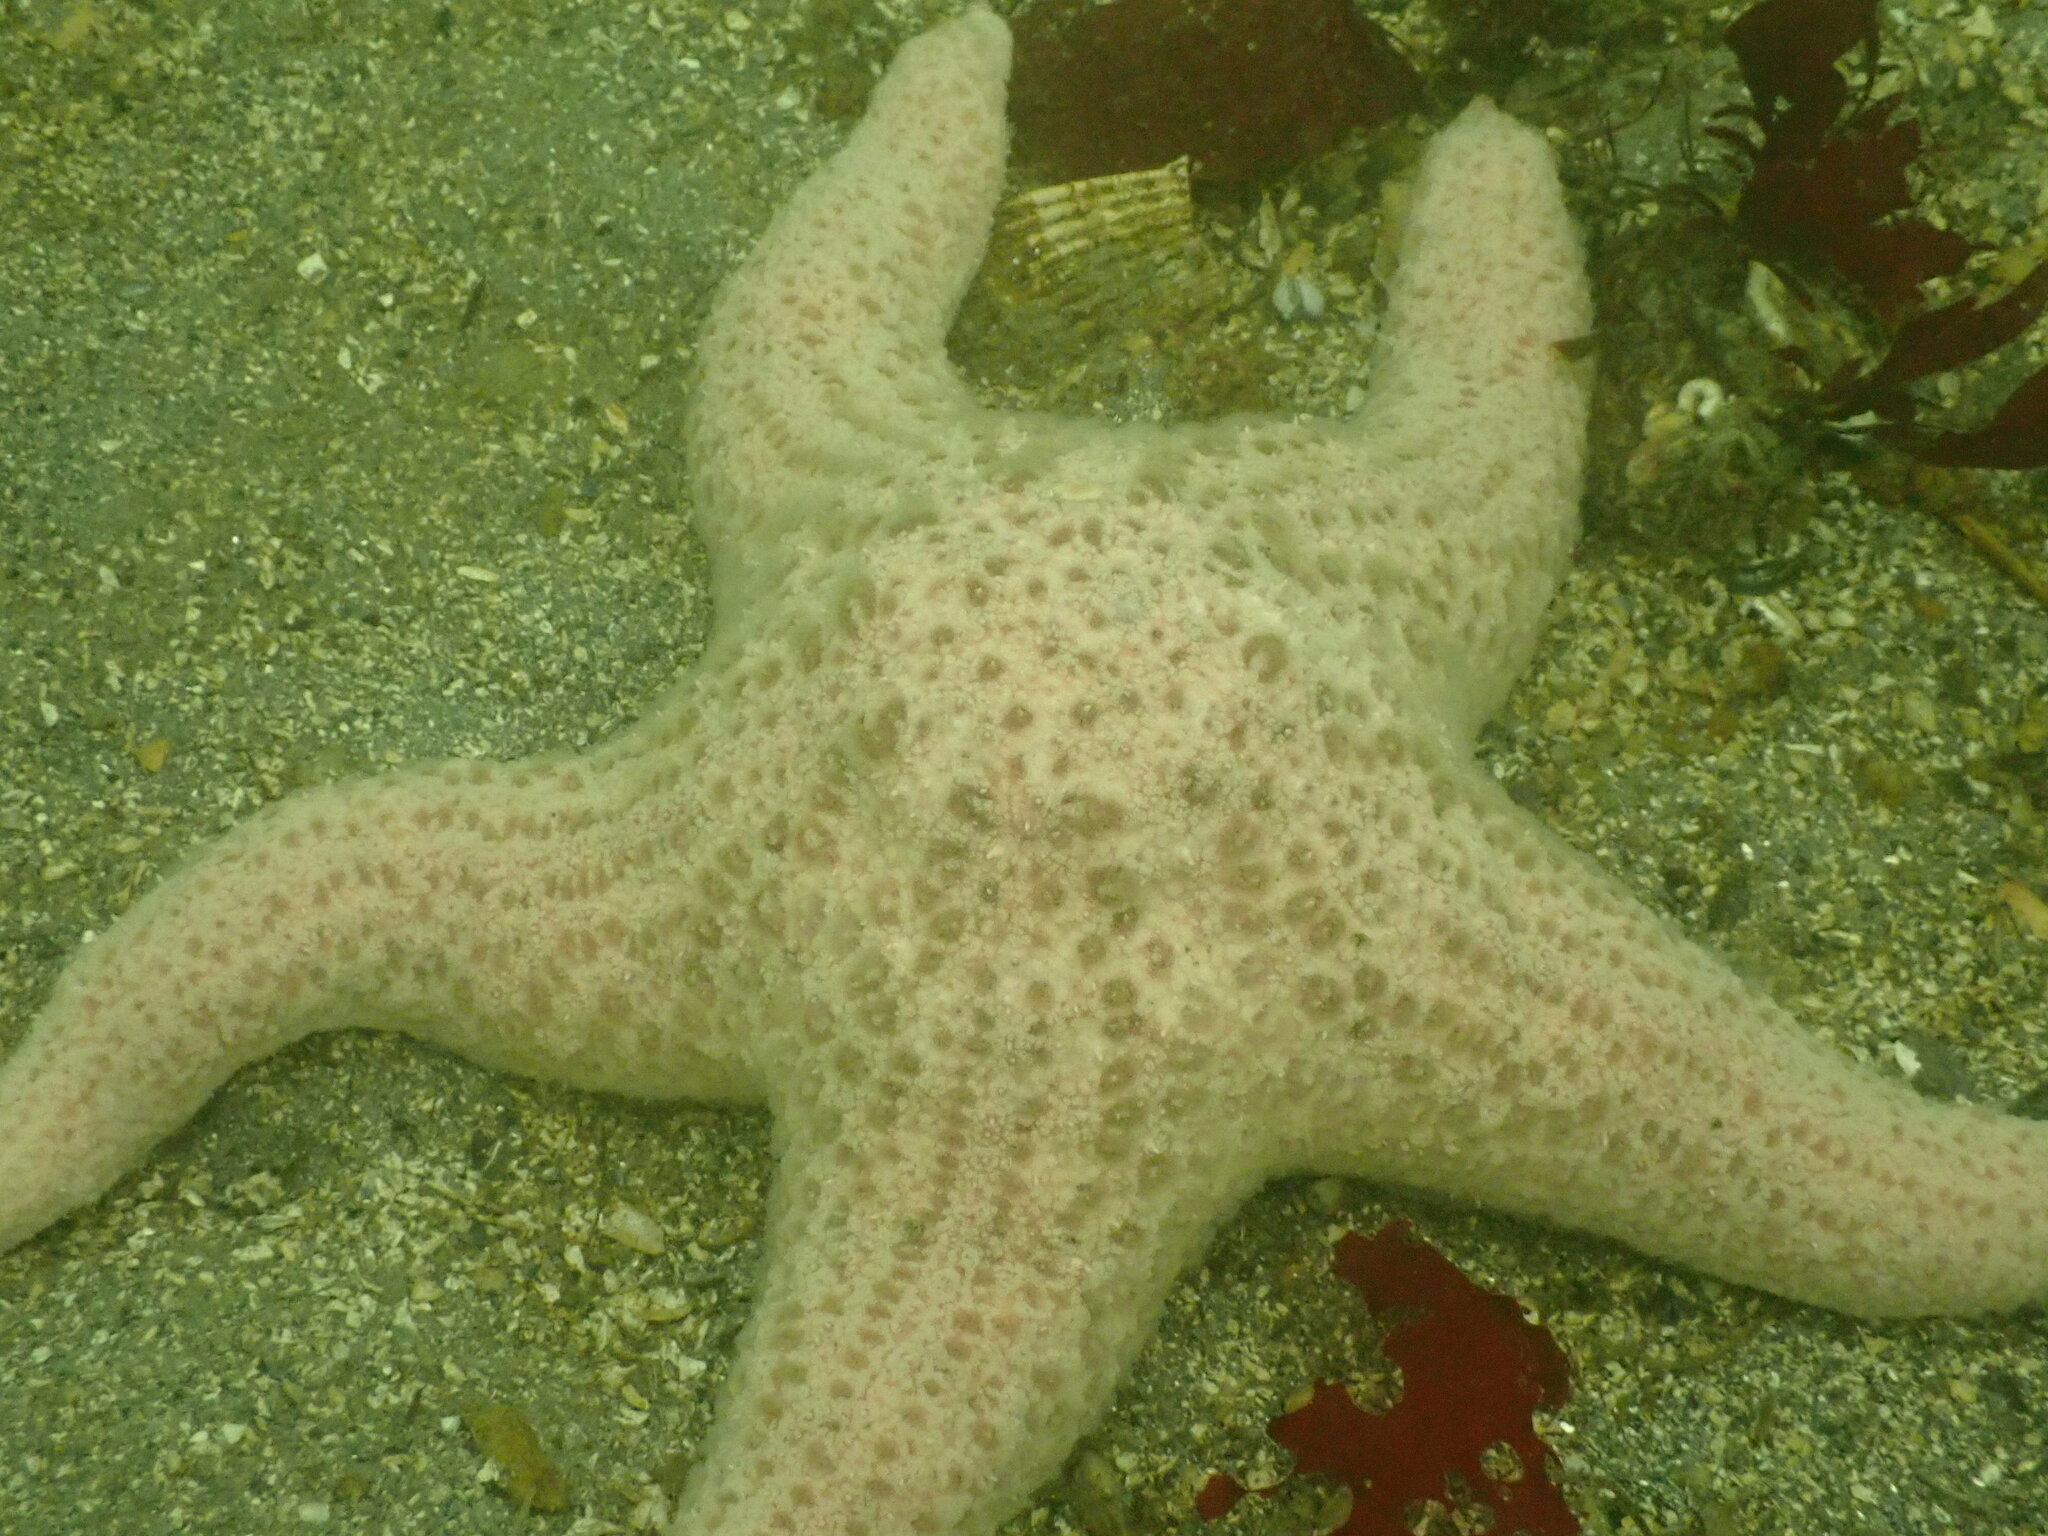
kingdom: Animalia
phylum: Echinodermata
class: Asteroidea
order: Forcipulatida
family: Asteriidae
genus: Pisaster
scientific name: Pisaster brevispinus
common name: Pink stars
